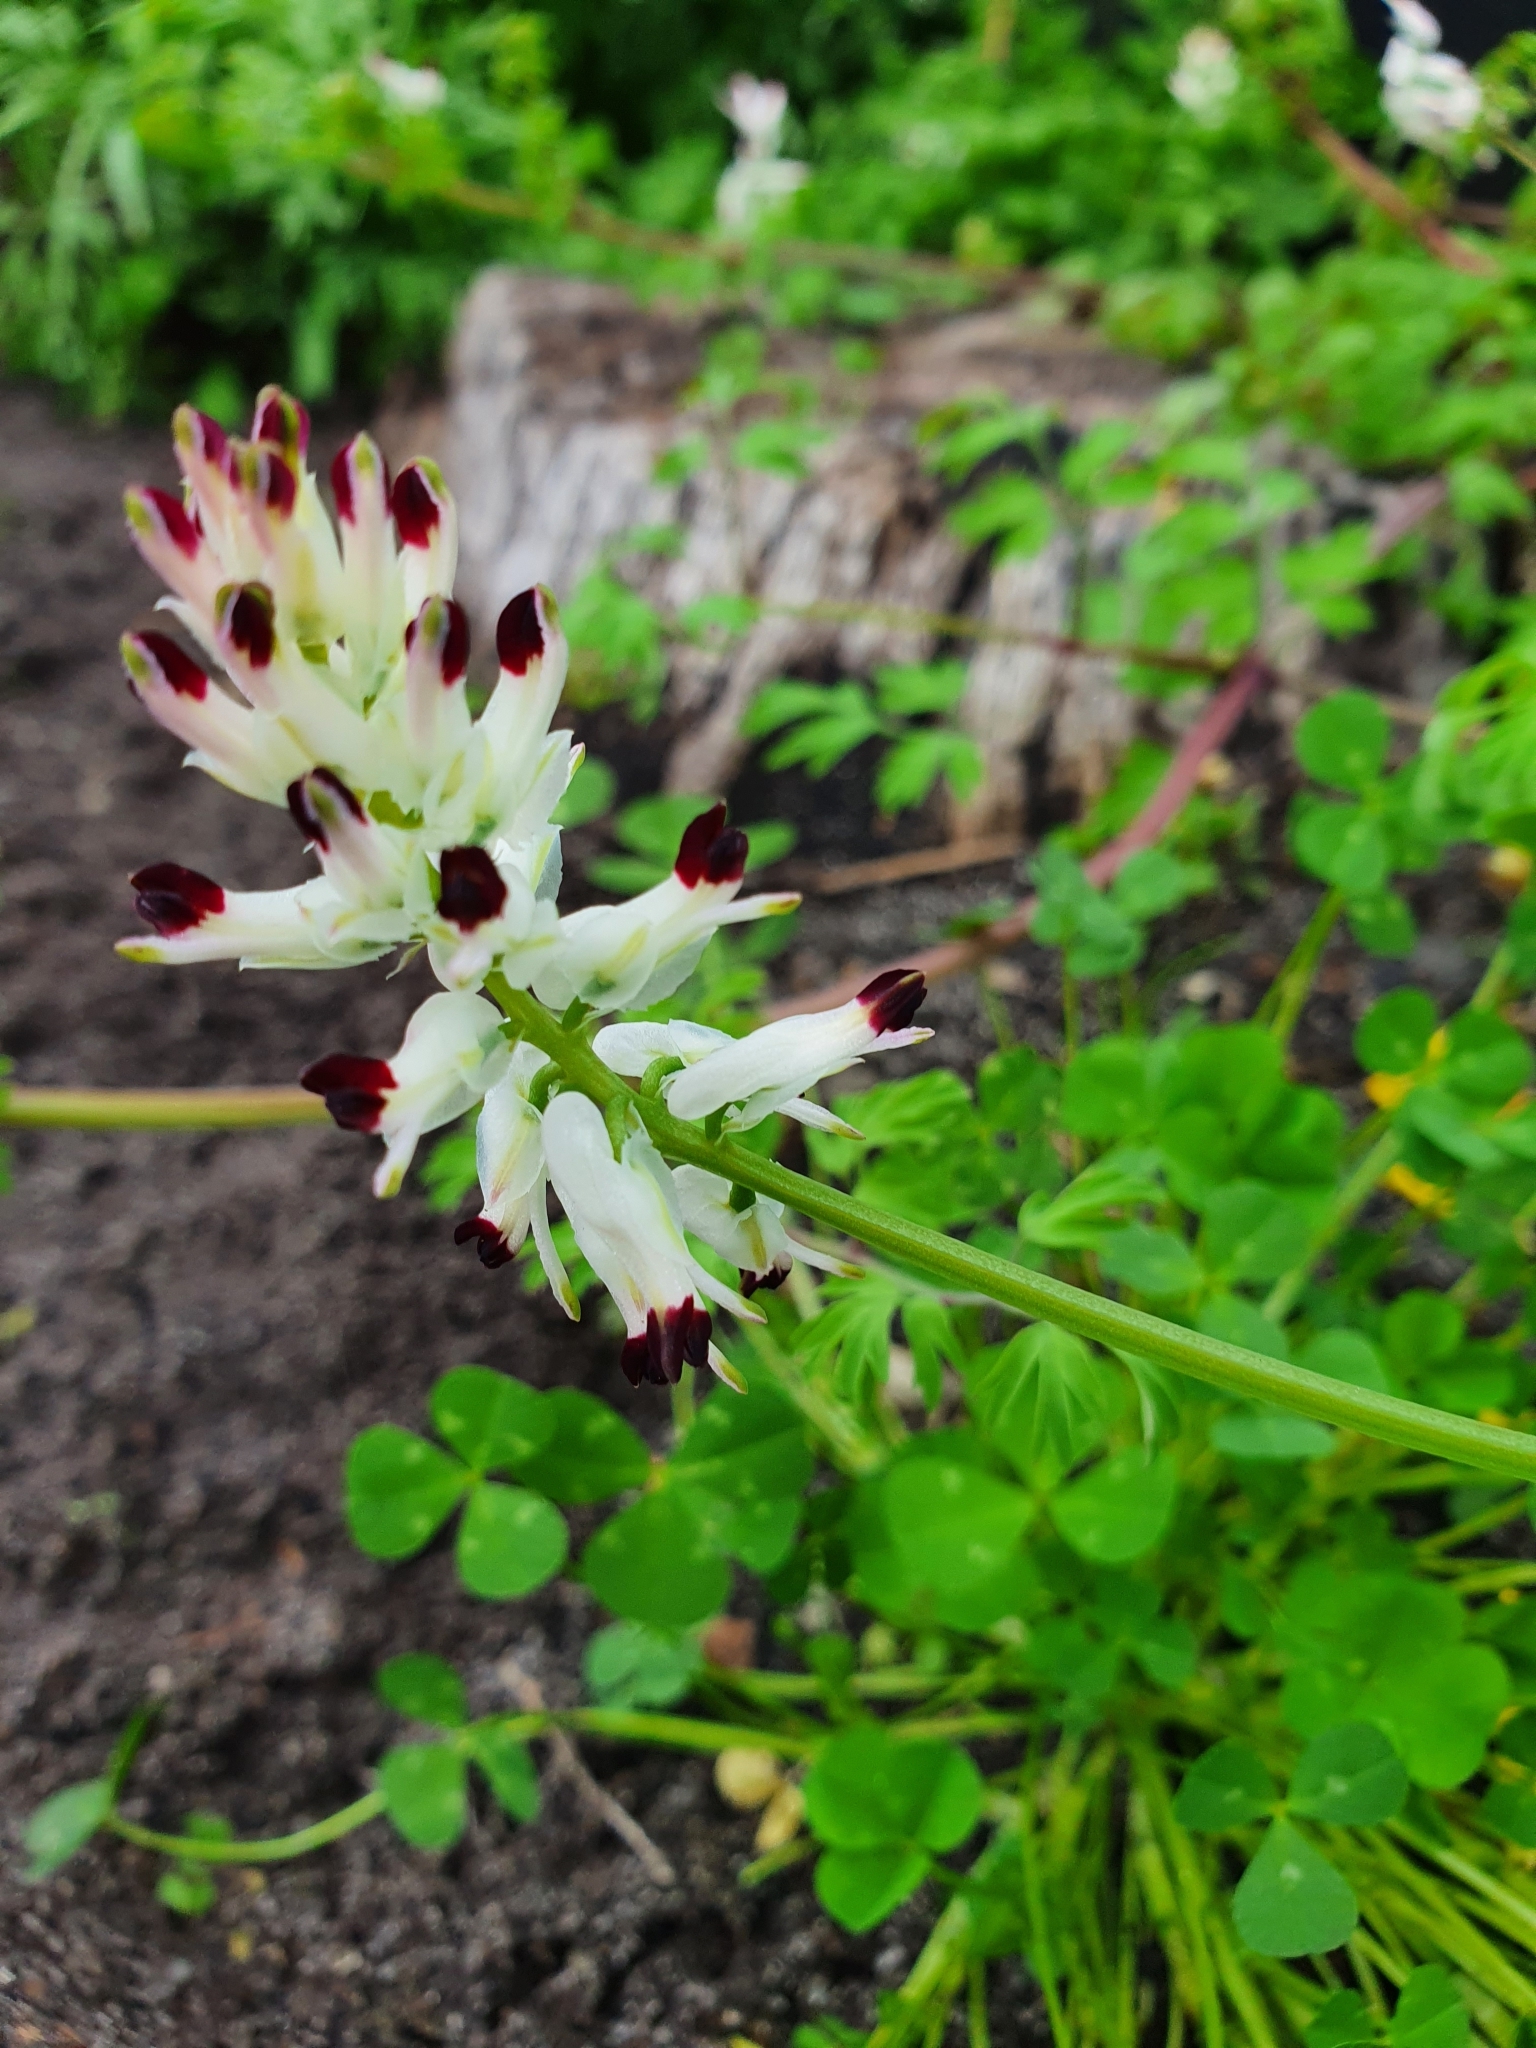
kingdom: Plantae
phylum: Tracheophyta
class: Magnoliopsida
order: Ranunculales
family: Papaveraceae
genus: Fumaria
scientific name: Fumaria capreolata
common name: White ramping-fumitory
